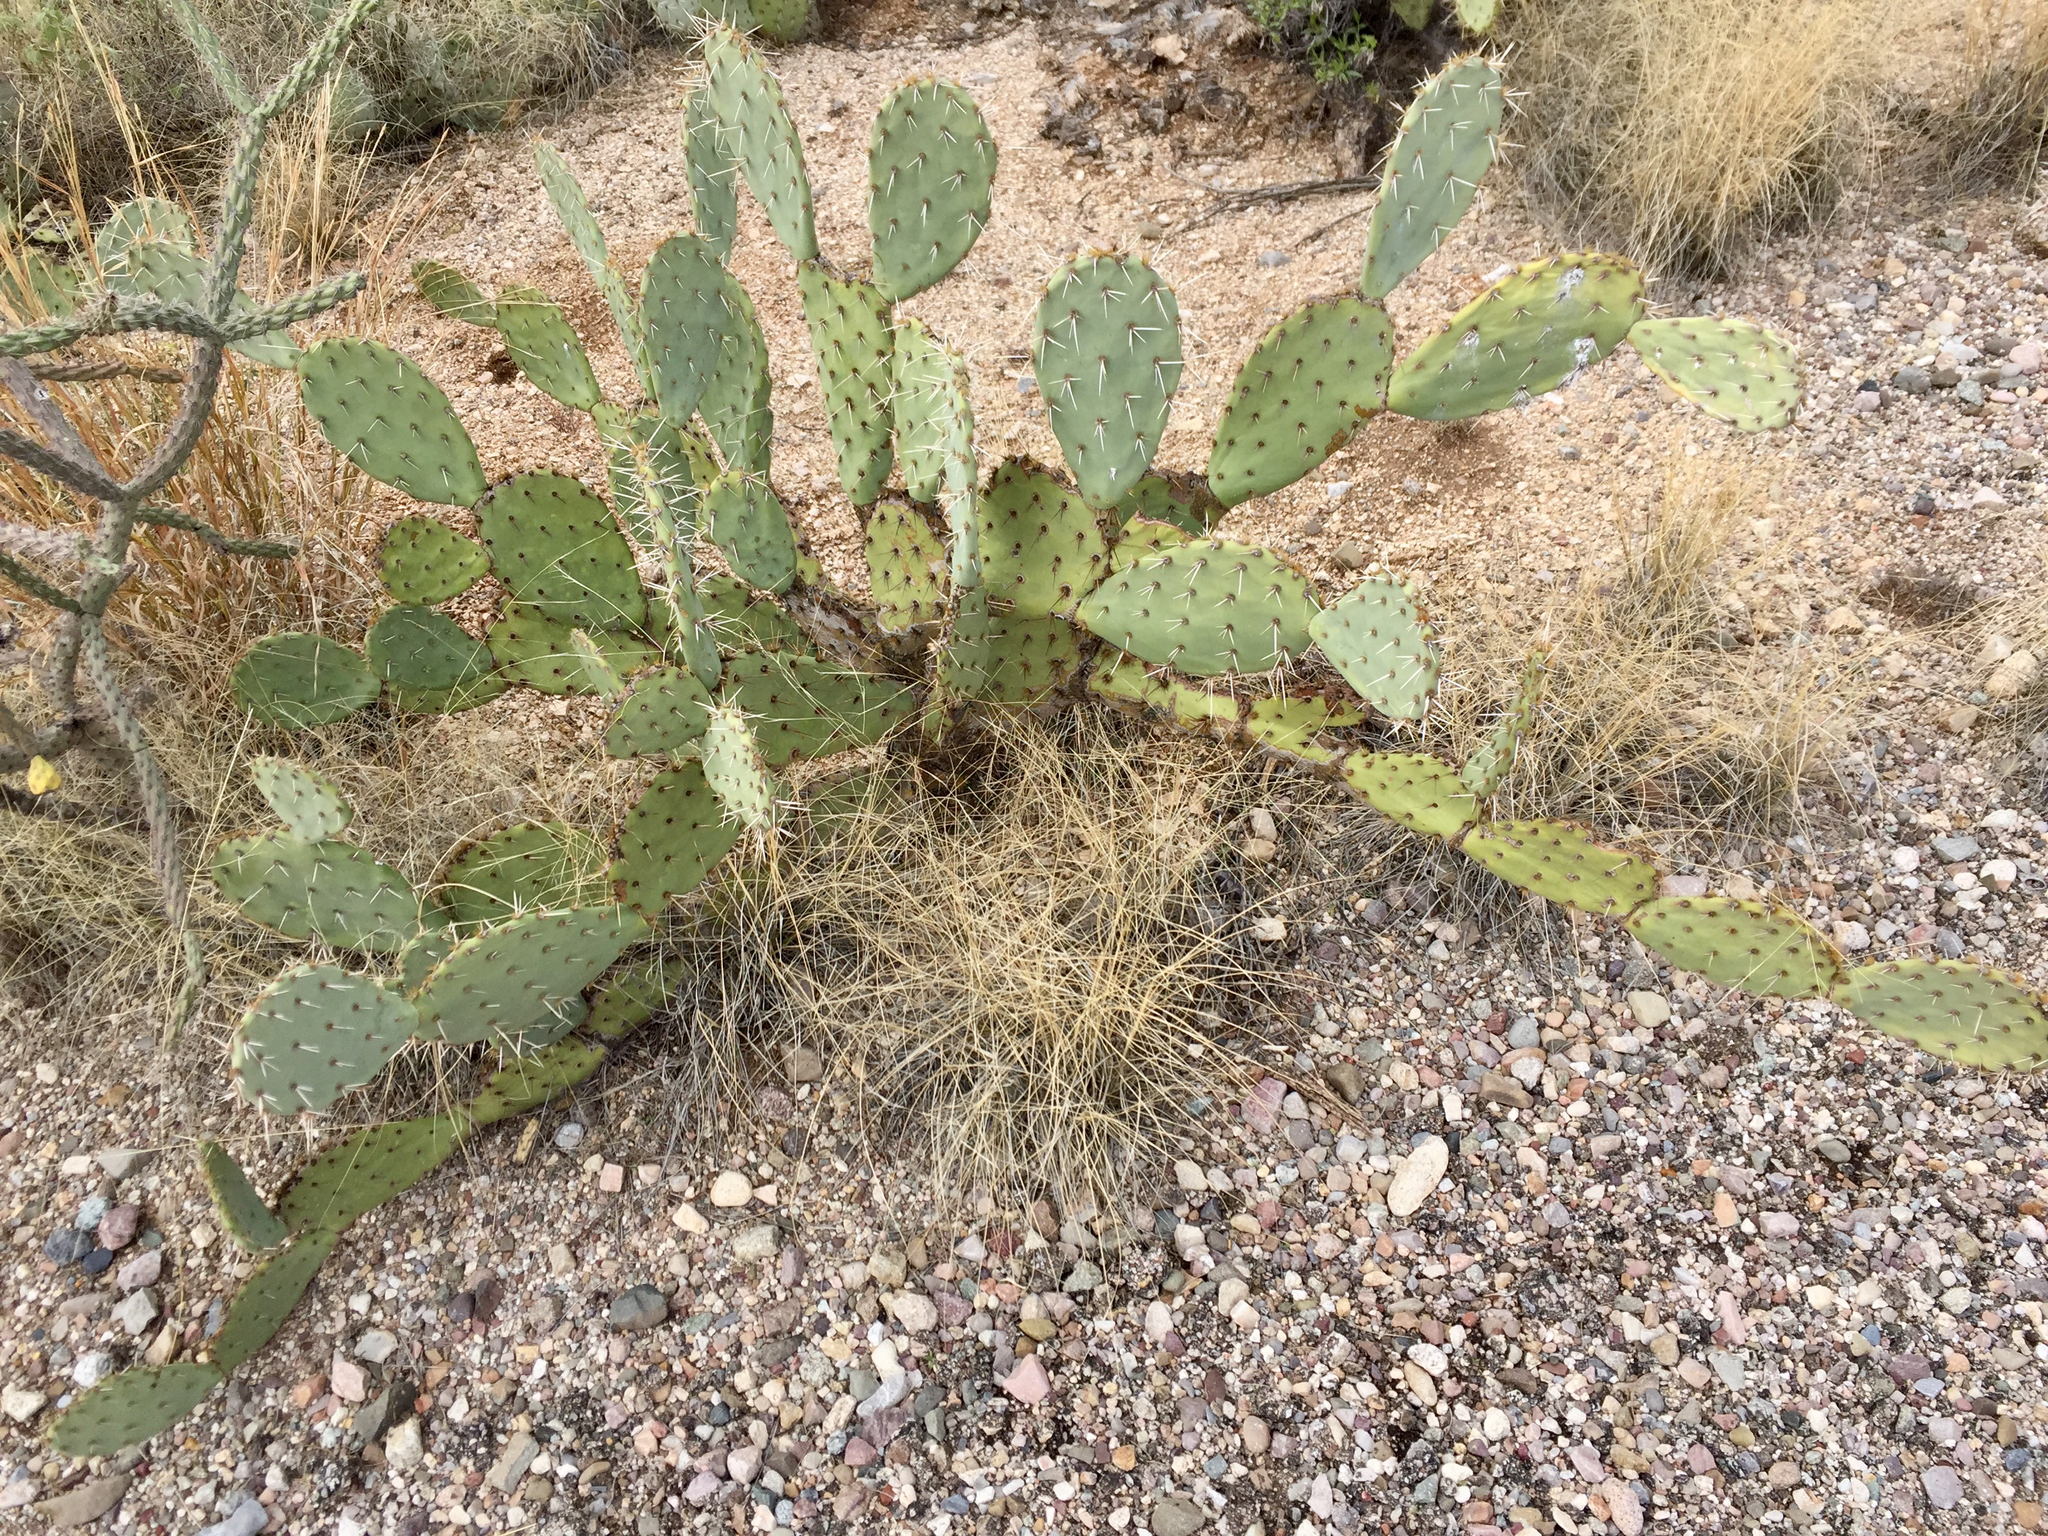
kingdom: Plantae
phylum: Tracheophyta
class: Magnoliopsida
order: Caryophyllales
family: Cactaceae
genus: Opuntia
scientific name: Opuntia engelmannii
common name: Cactus-apple
